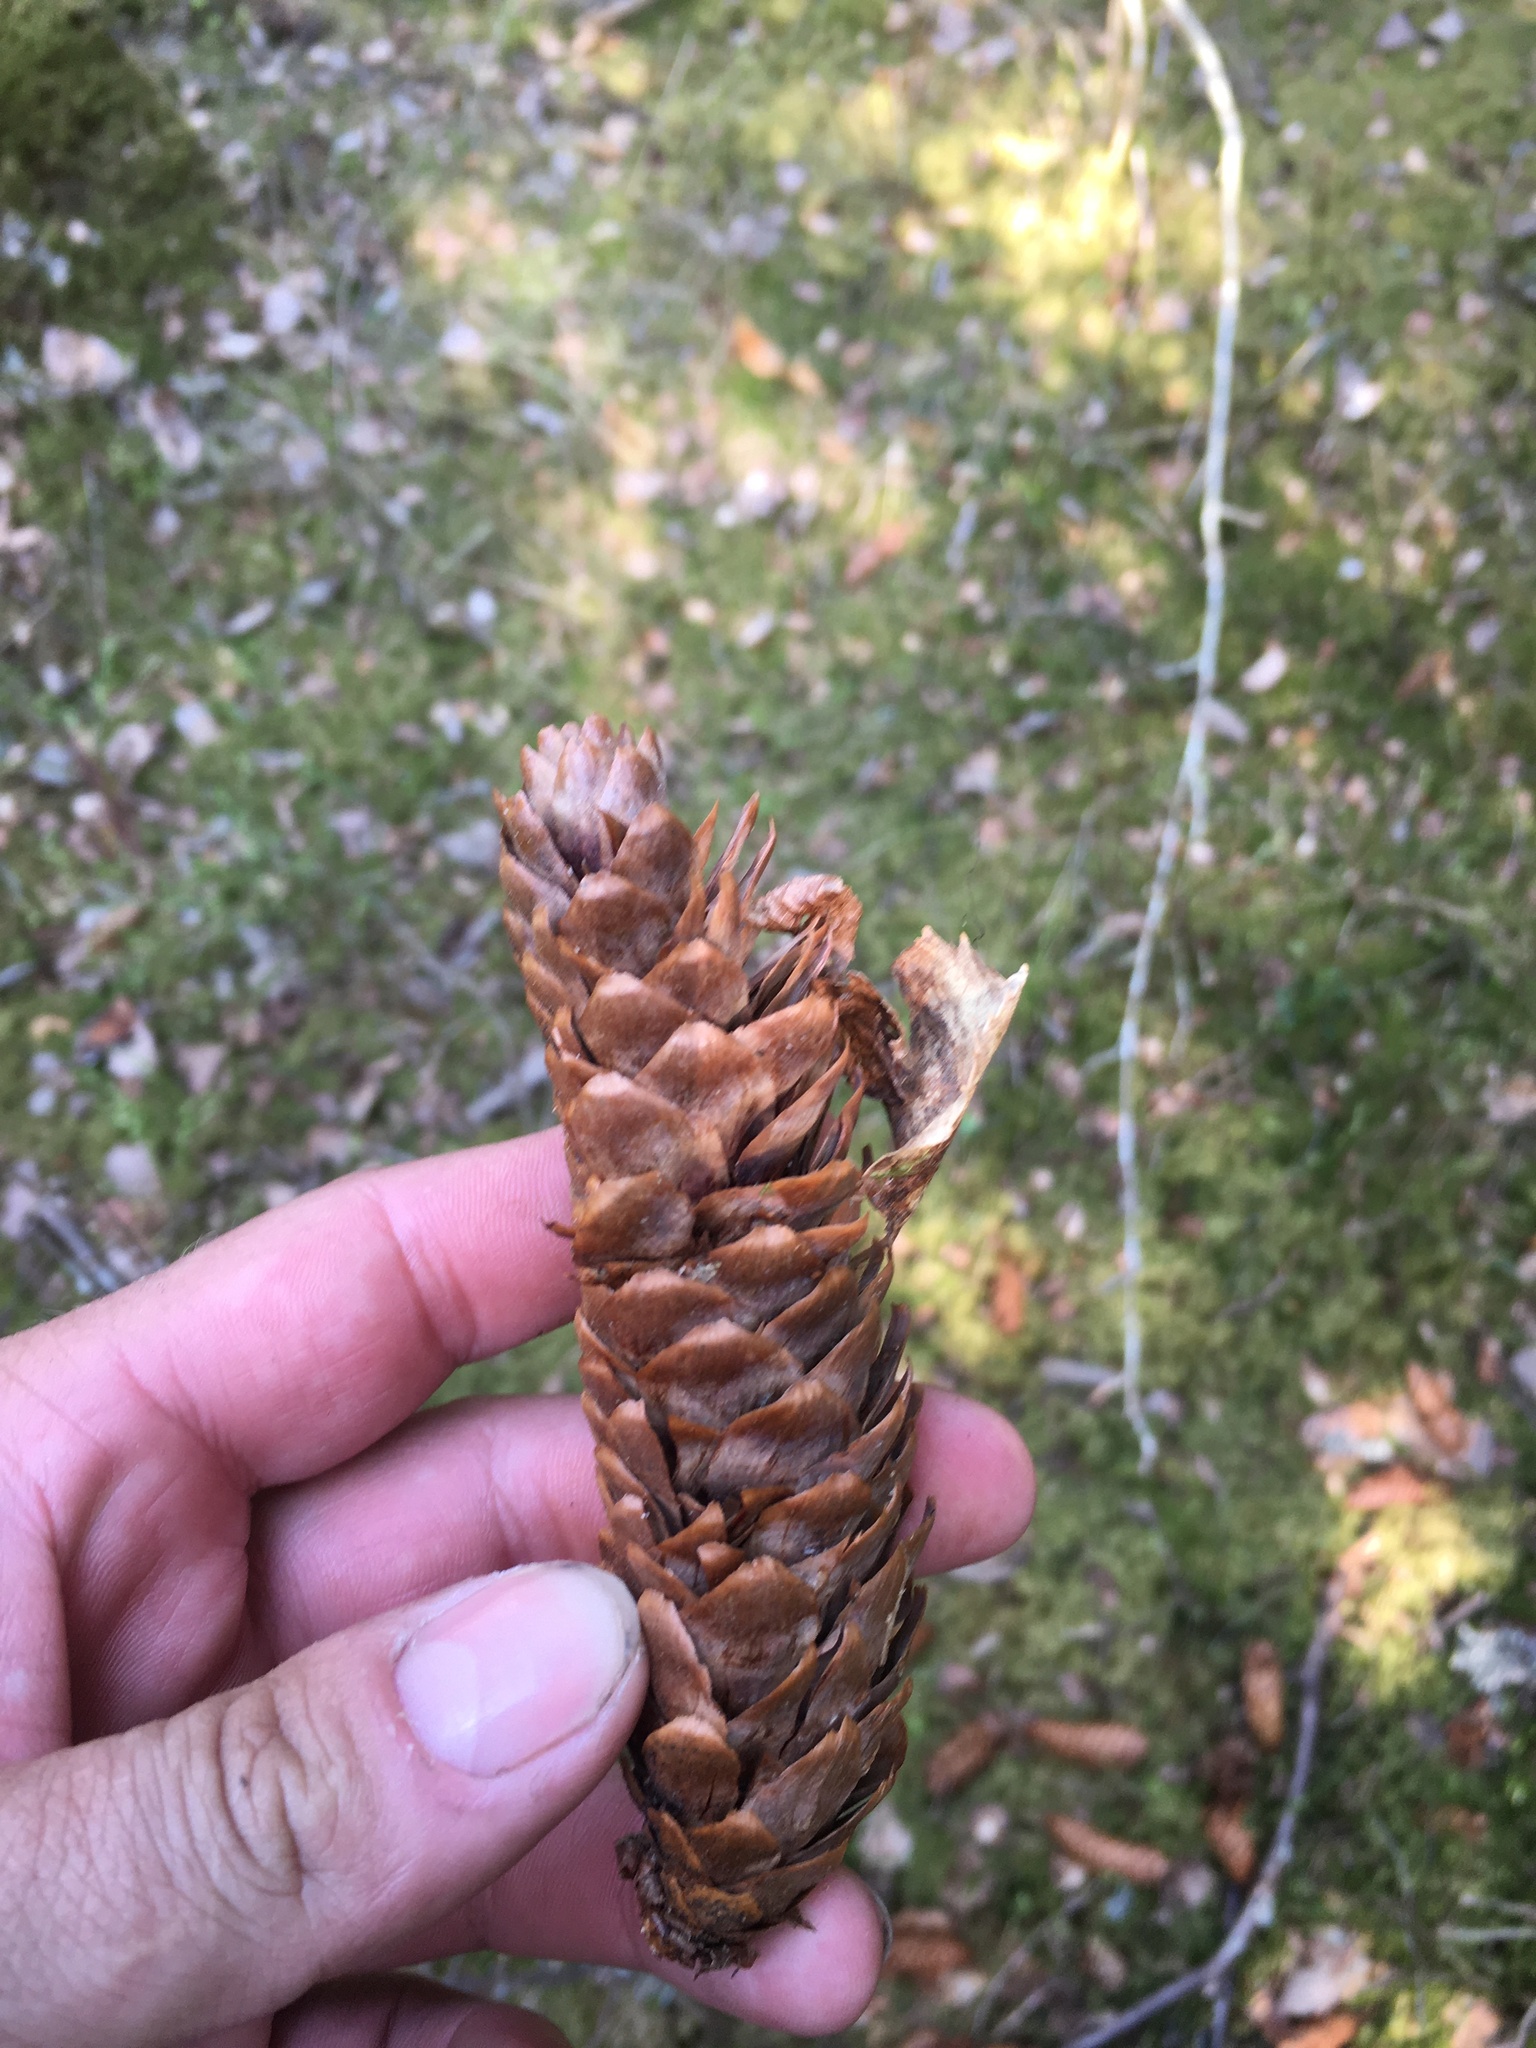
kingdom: Plantae
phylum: Tracheophyta
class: Pinopsida
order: Pinales
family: Pinaceae
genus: Picea
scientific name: Picea abies
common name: Norway spruce
